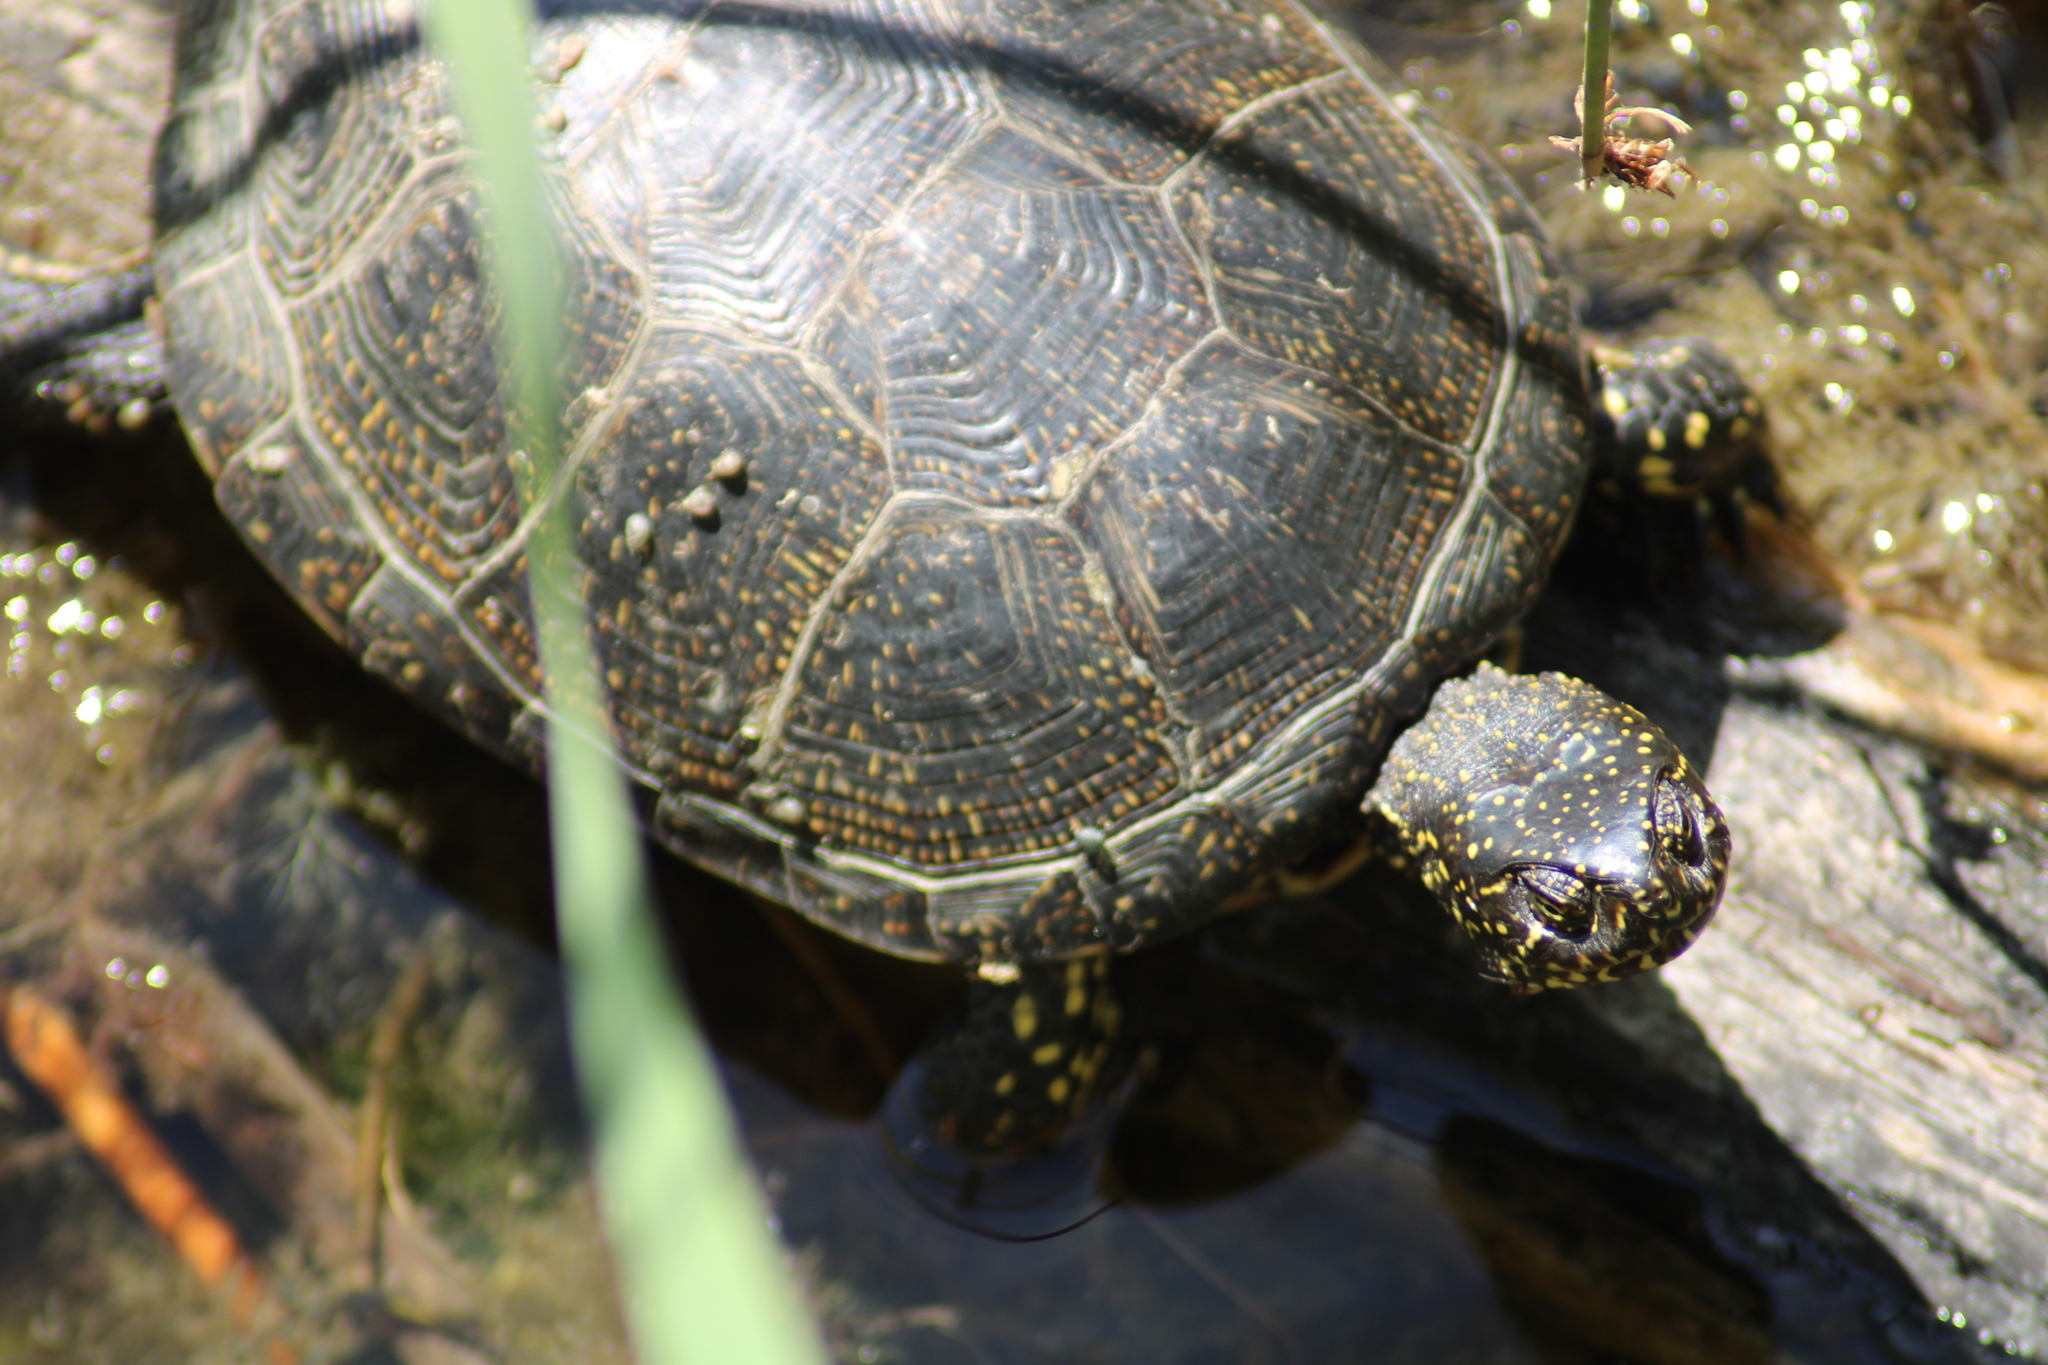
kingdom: Animalia
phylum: Chordata
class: Testudines
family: Emydidae
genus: Emys
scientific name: Emys orbicularis
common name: European pond turtle
